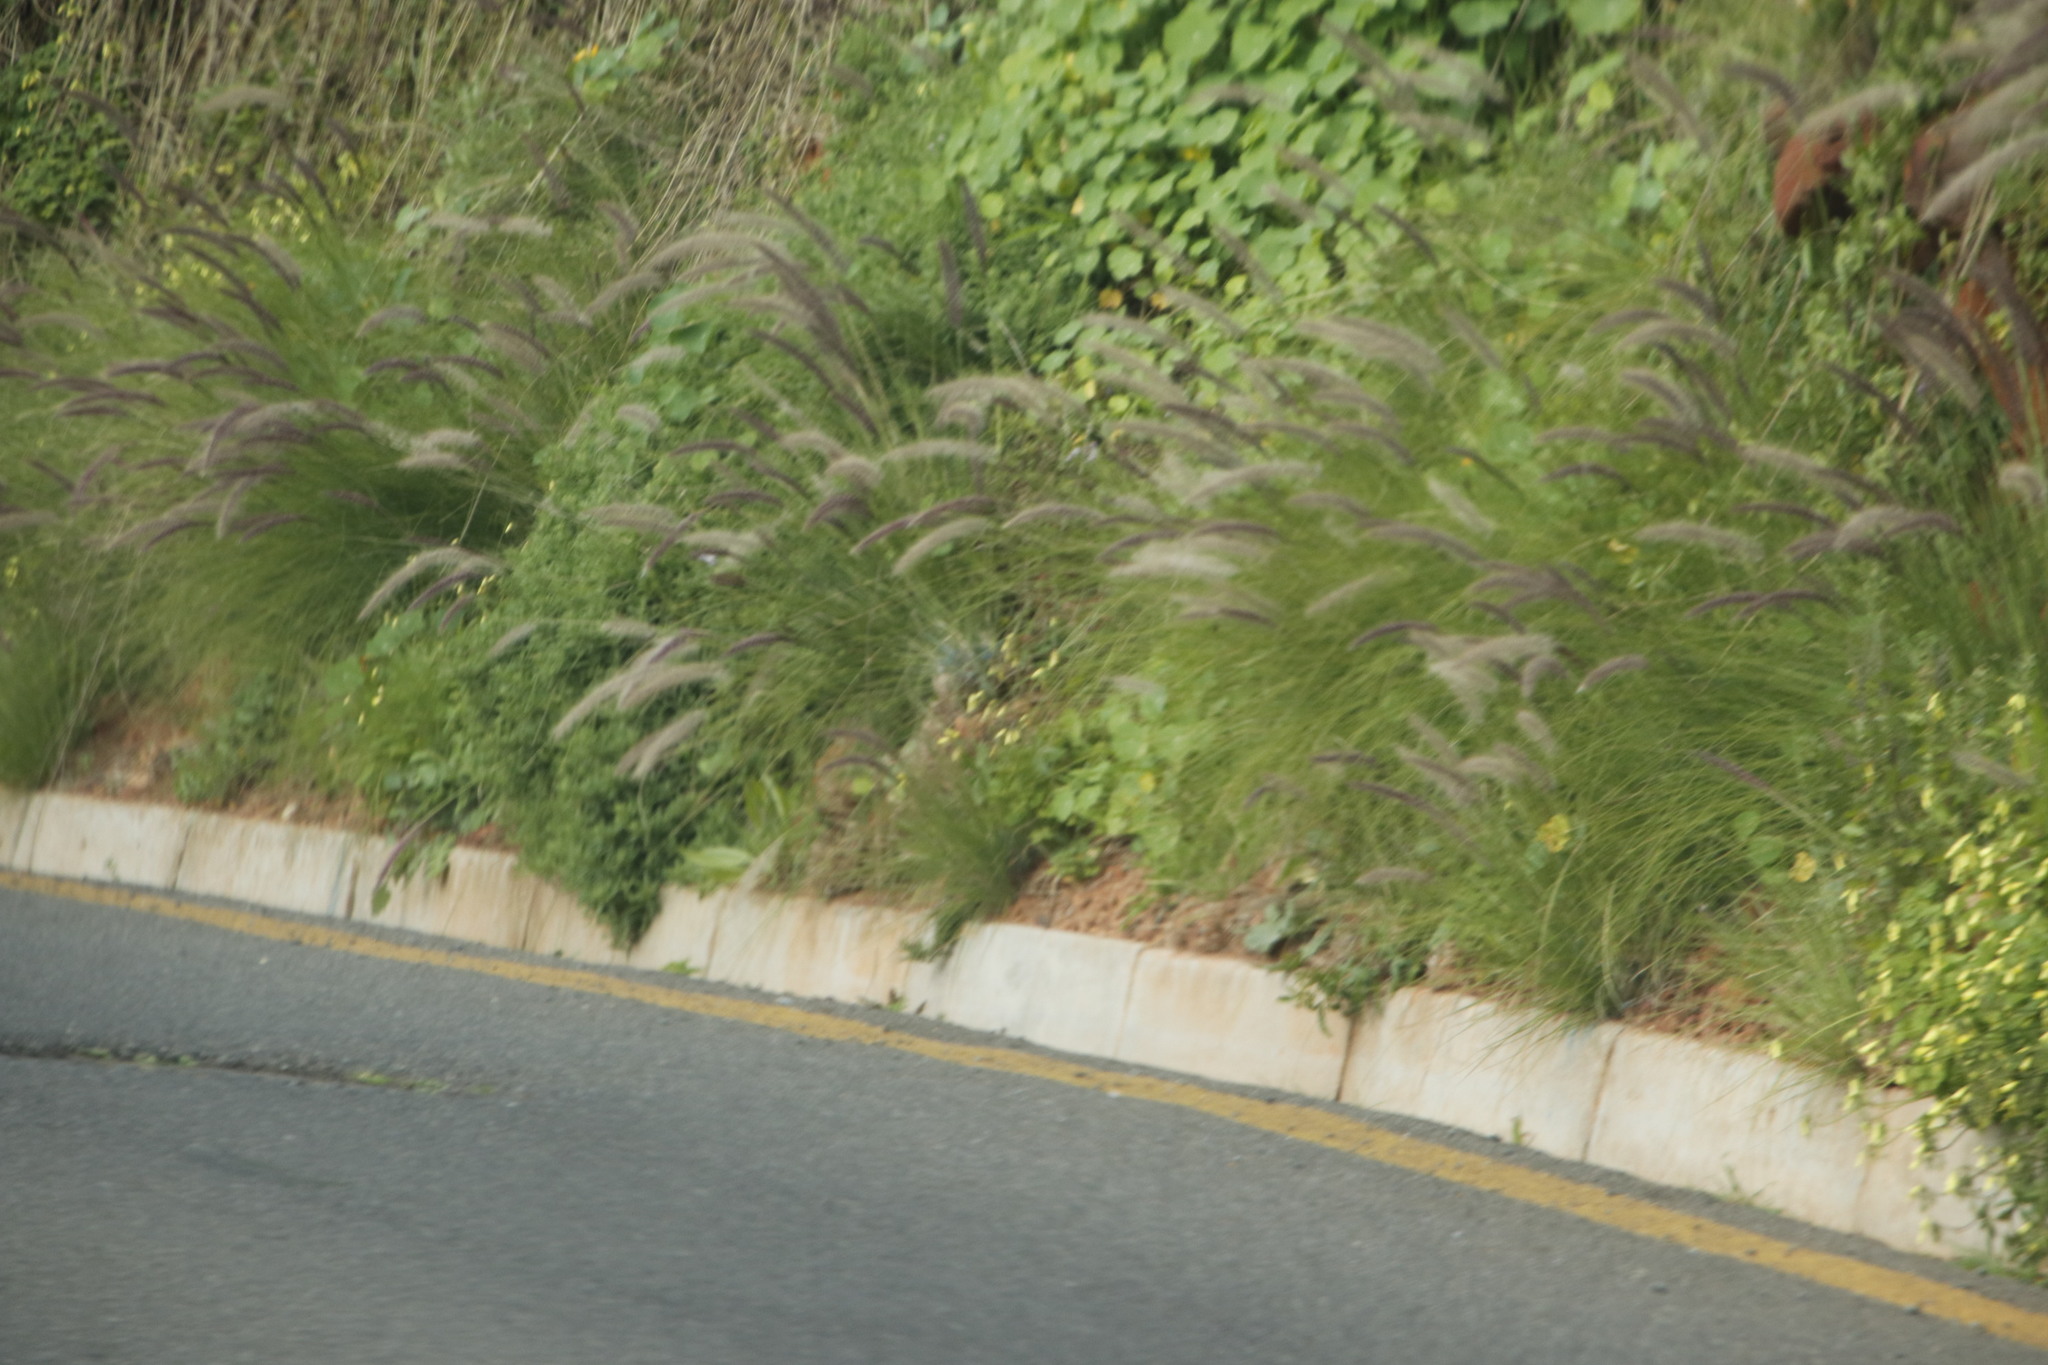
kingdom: Plantae
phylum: Tracheophyta
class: Liliopsida
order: Poales
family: Poaceae
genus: Cenchrus
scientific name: Cenchrus setaceus
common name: Crimson fountaingrass
